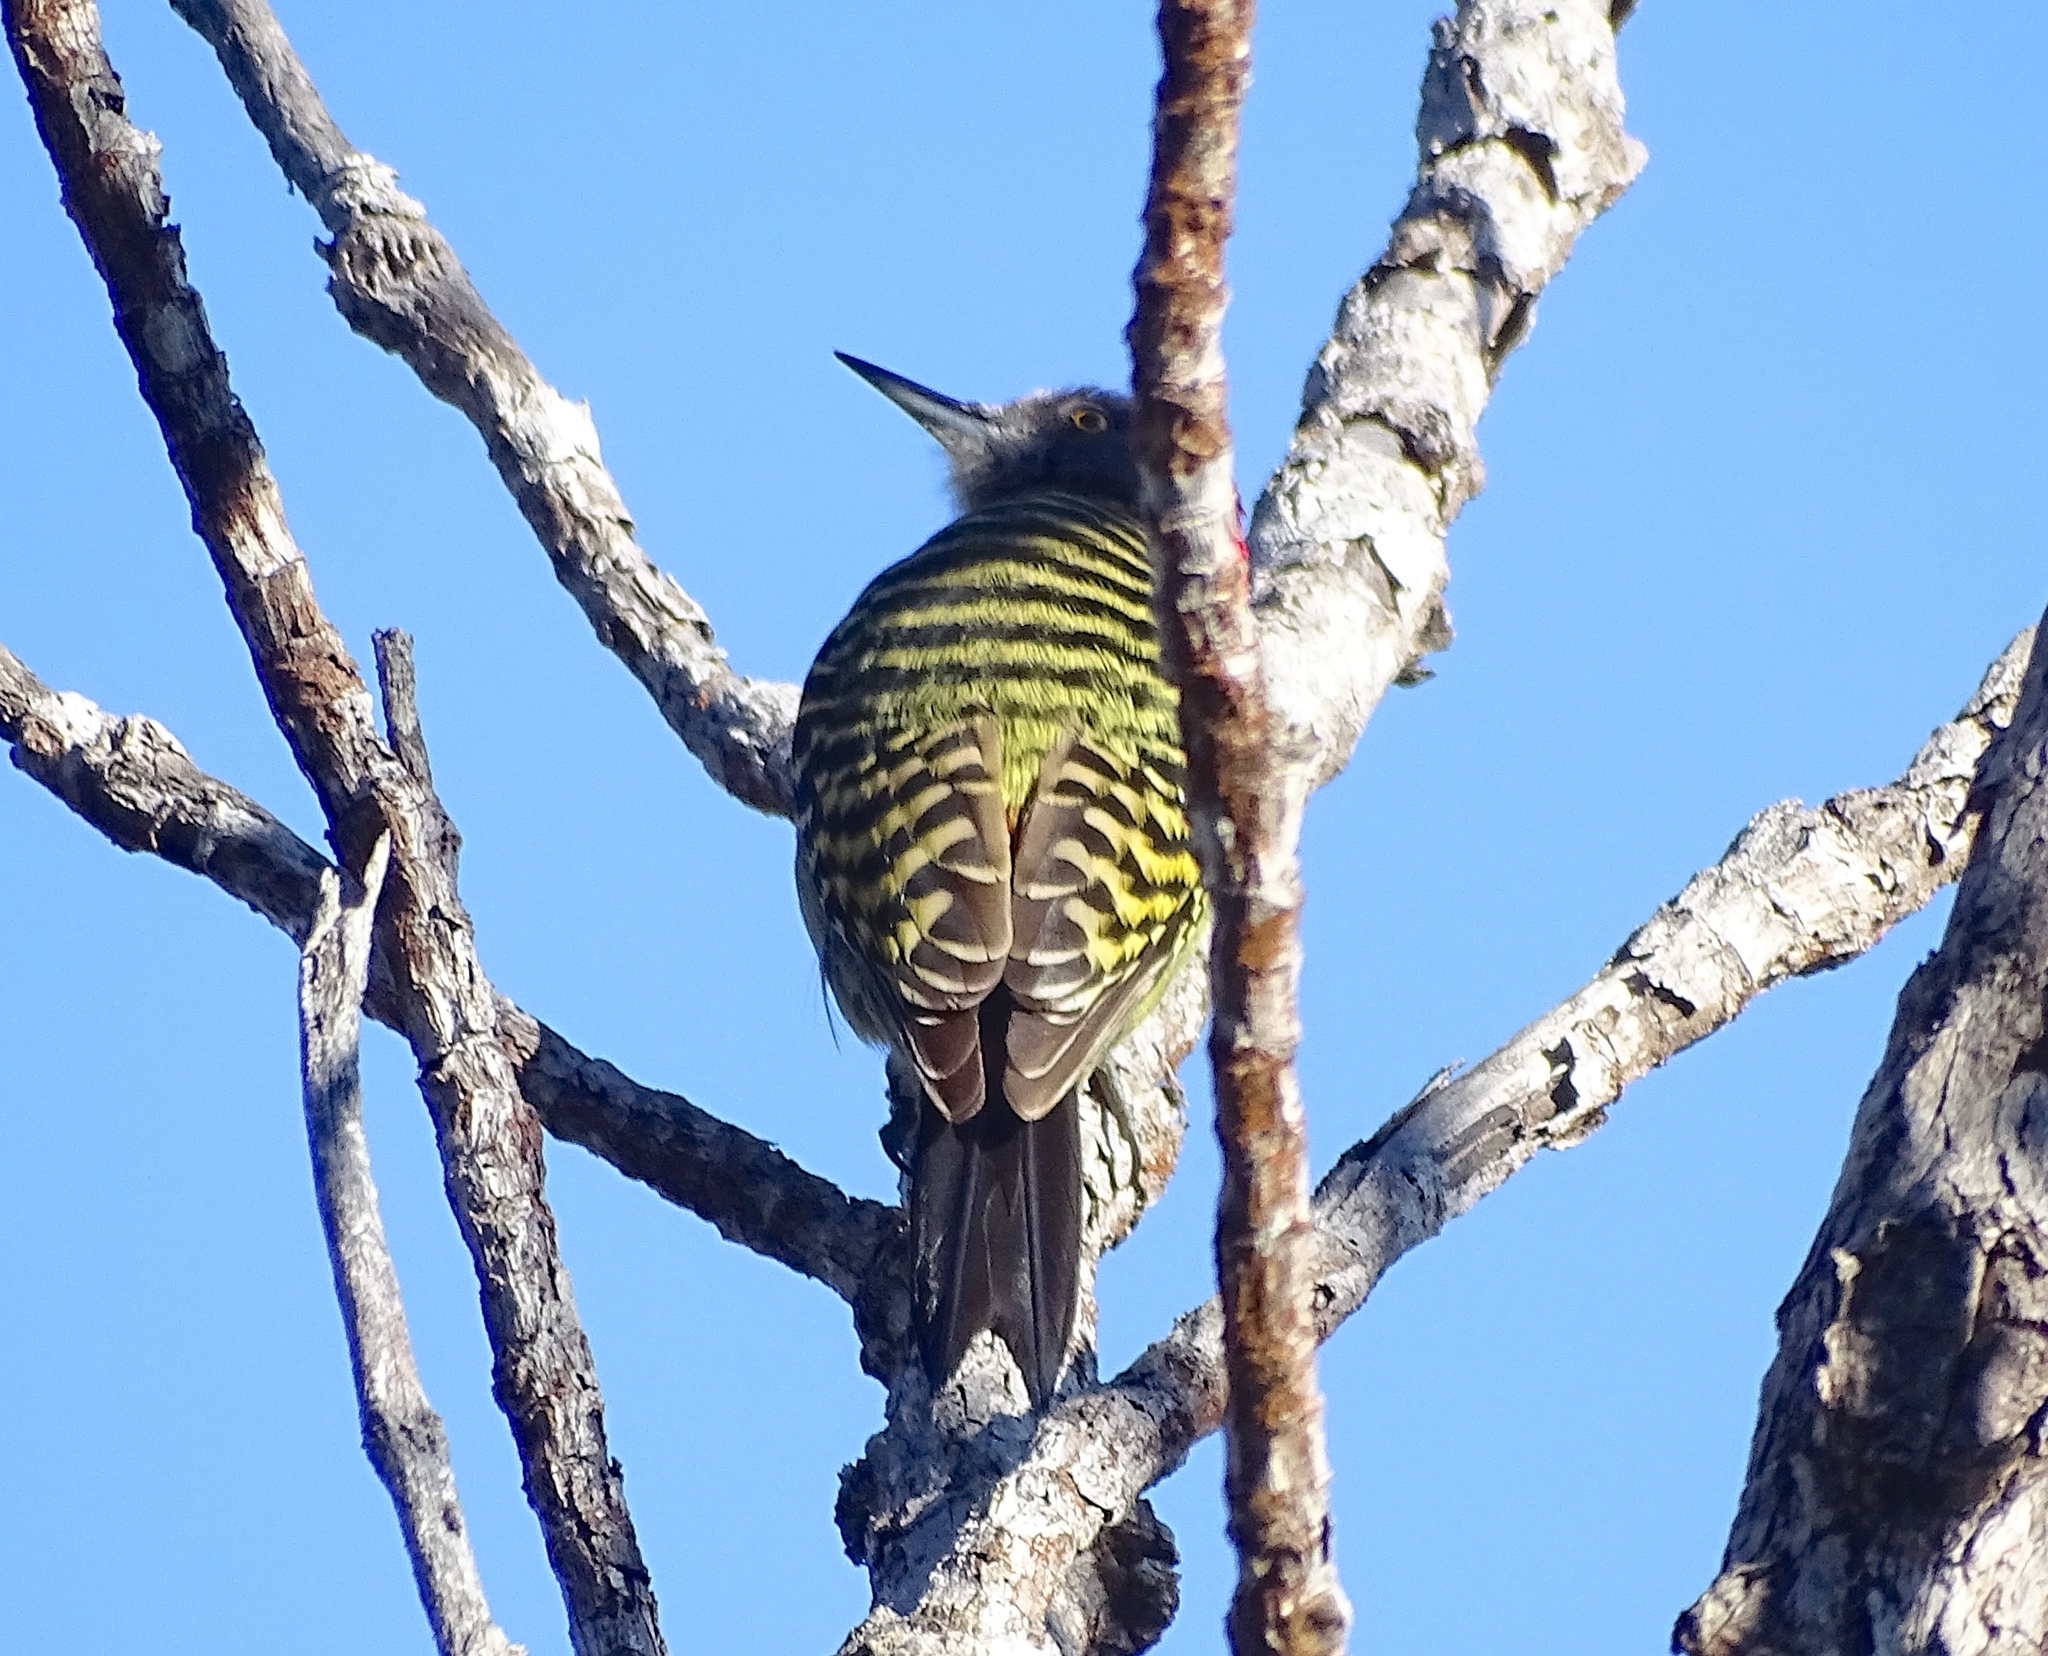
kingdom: Animalia
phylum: Chordata
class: Aves
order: Piciformes
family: Picidae
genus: Melanerpes
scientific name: Melanerpes striatus
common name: Hispaniolan woodpecker
